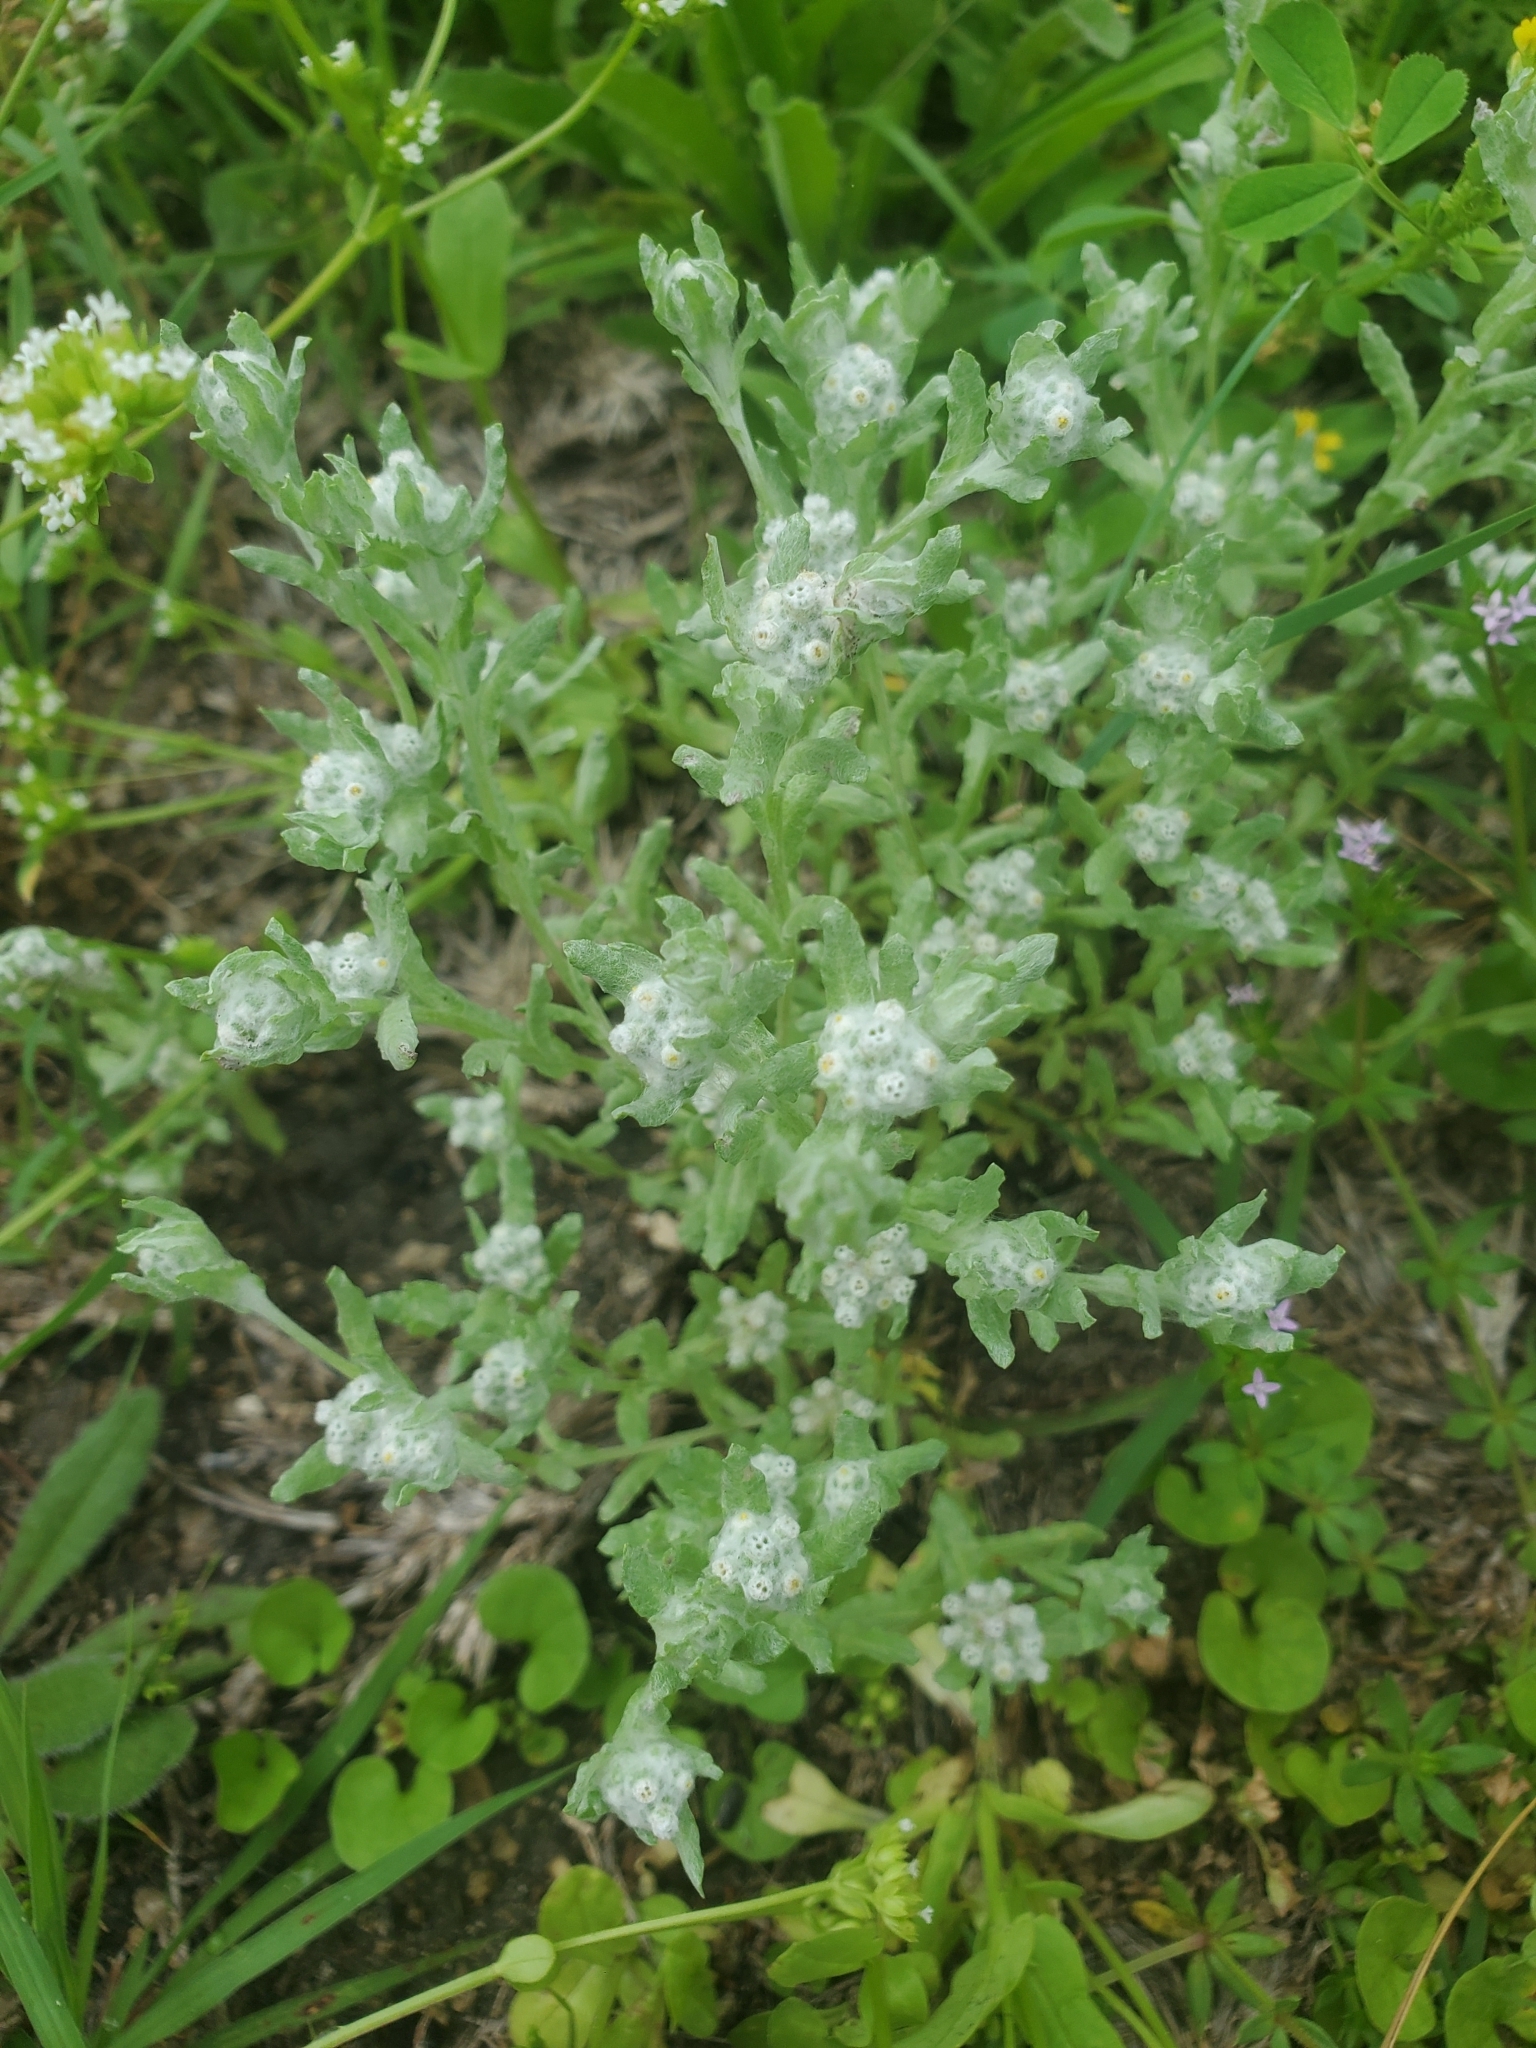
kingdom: Plantae
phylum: Tracheophyta
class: Magnoliopsida
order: Asterales
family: Asteraceae
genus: Diaperia
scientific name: Diaperia verna
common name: Many-stem rabbit-tobacco
